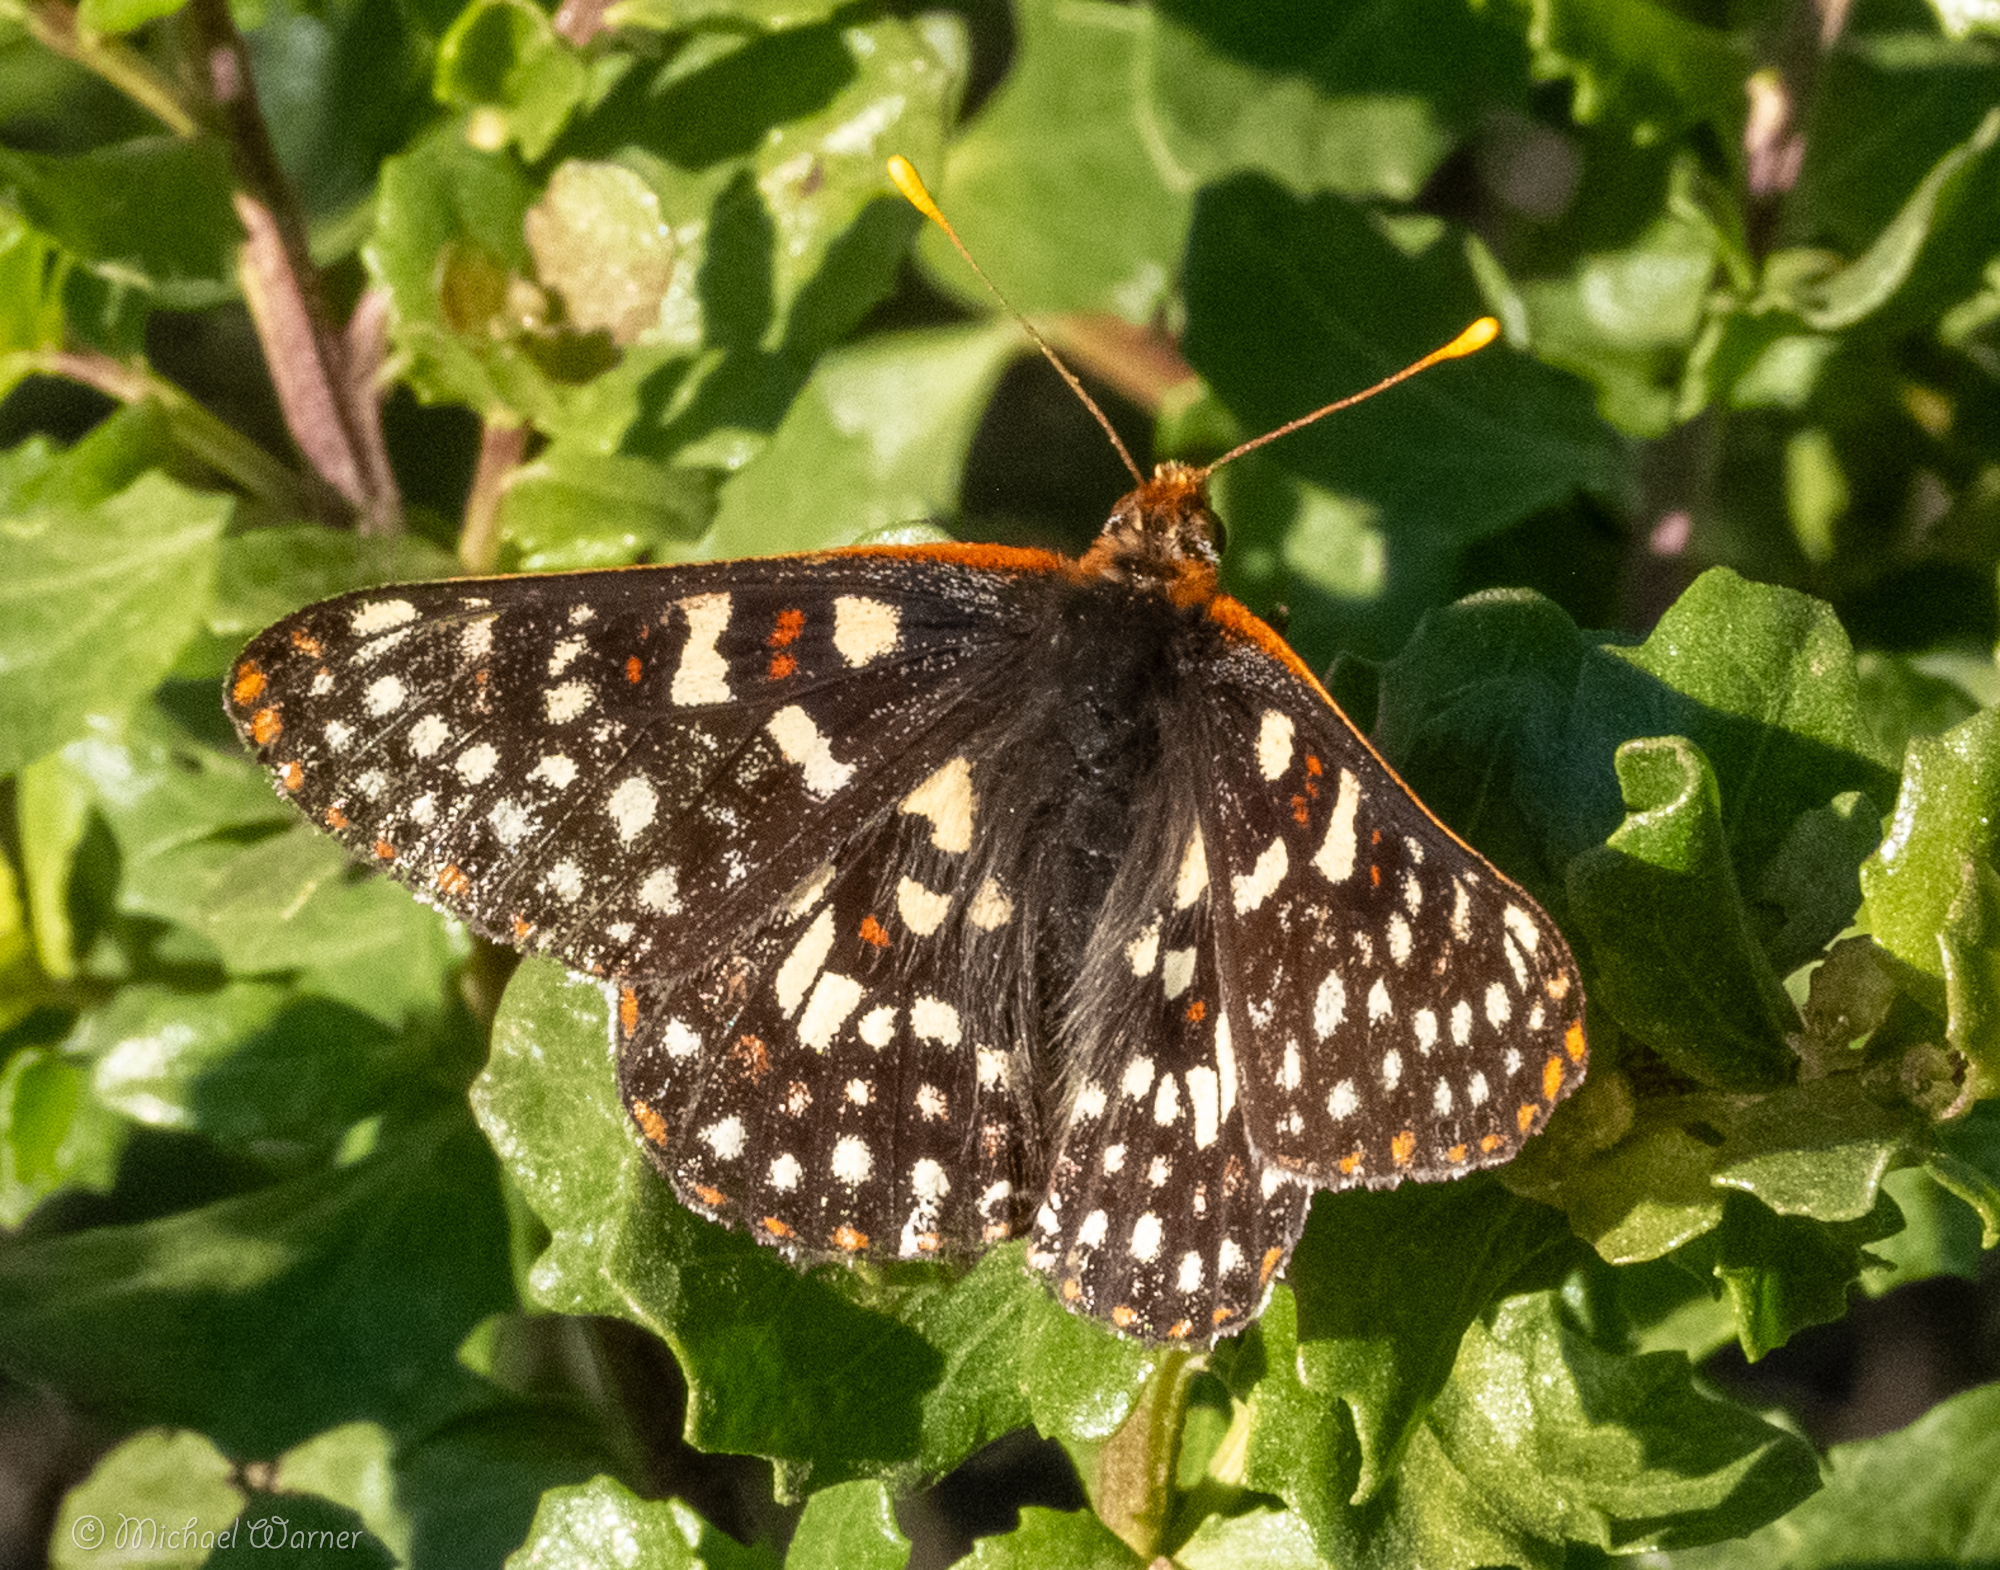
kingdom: Animalia
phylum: Arthropoda
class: Insecta
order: Lepidoptera
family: Nymphalidae
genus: Occidryas
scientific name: Occidryas chalcedona
